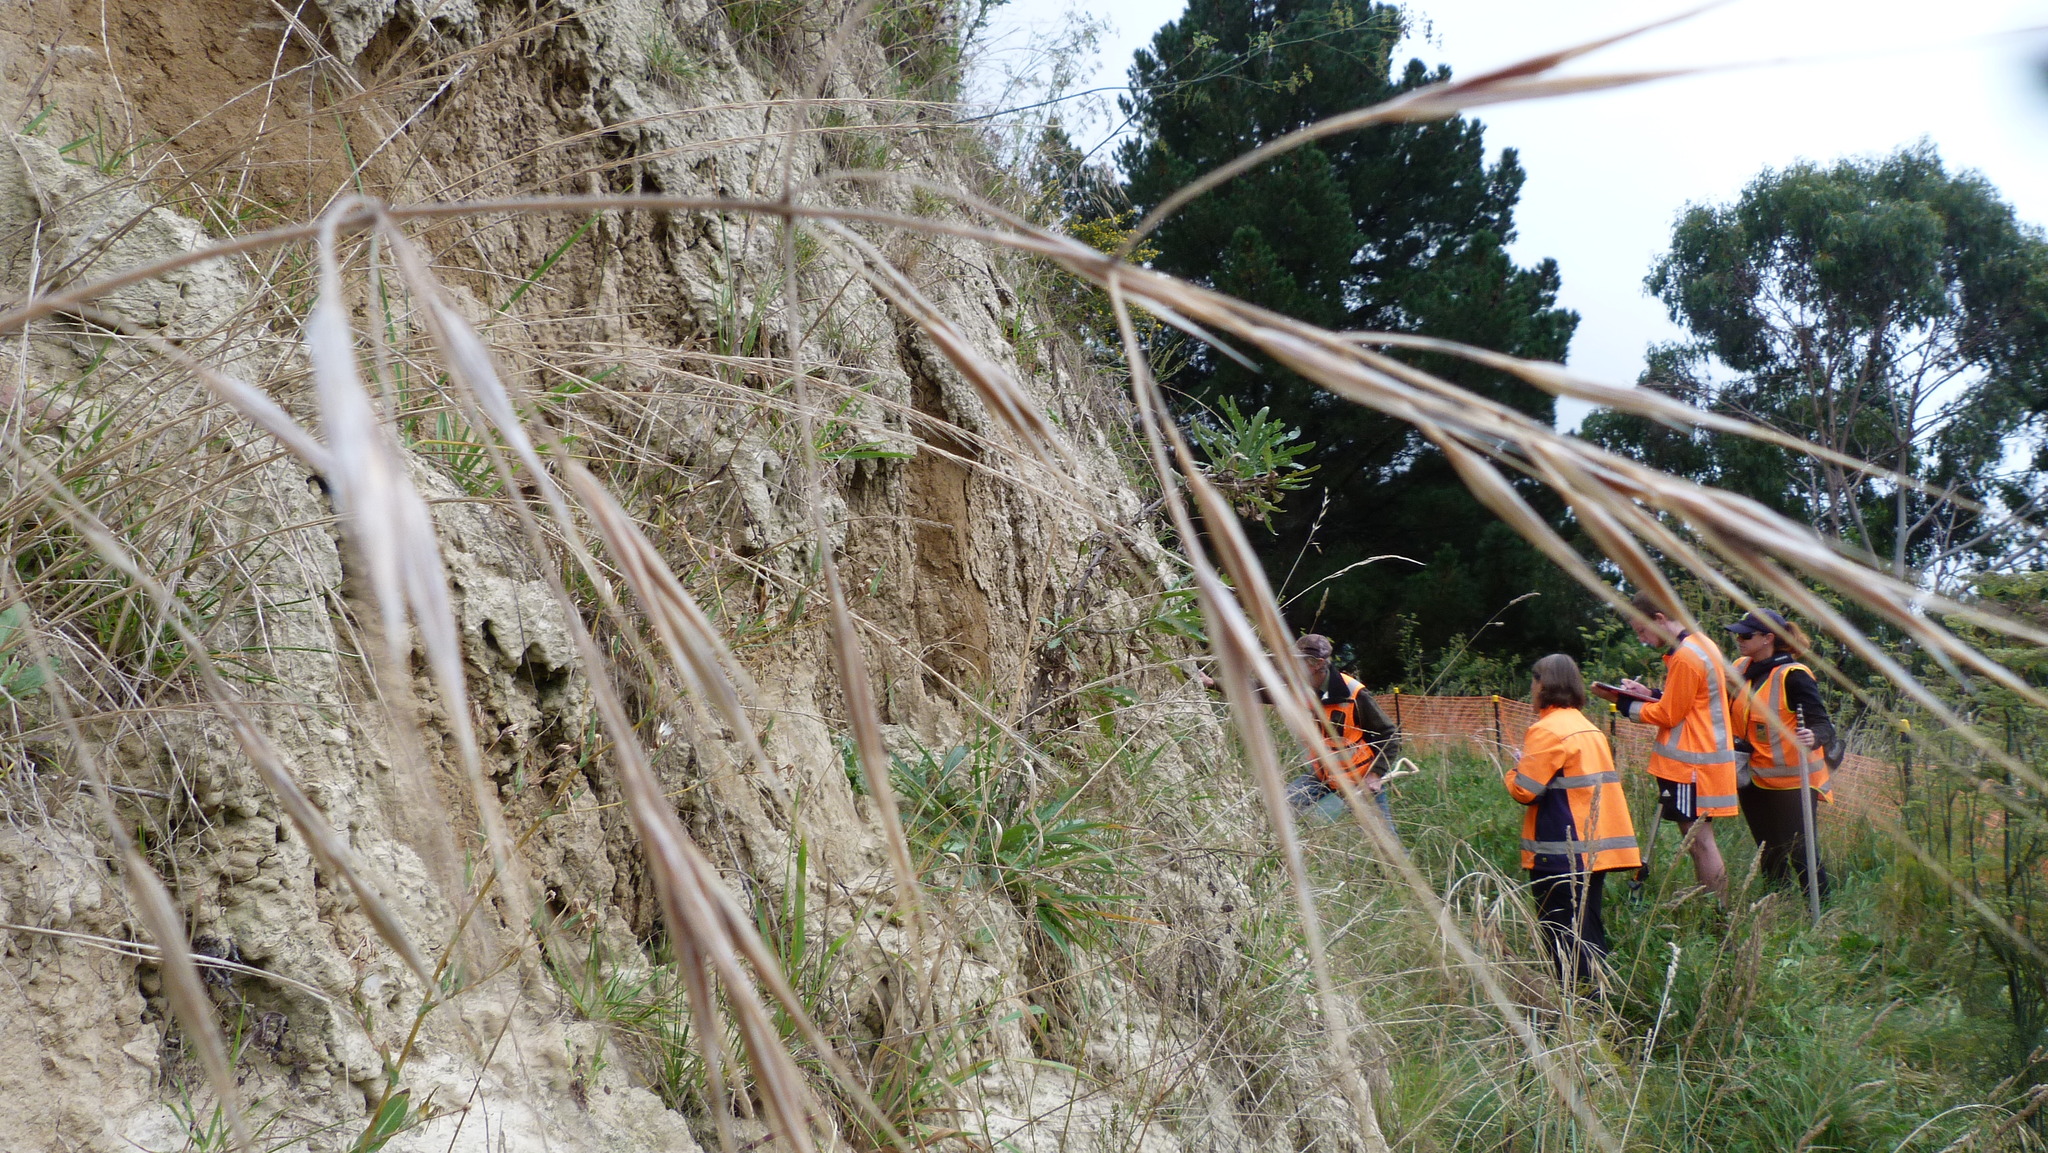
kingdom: Plantae
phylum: Tracheophyta
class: Liliopsida
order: Poales
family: Poaceae
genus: Bromus
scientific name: Bromus diandrus
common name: Ripgut brome
